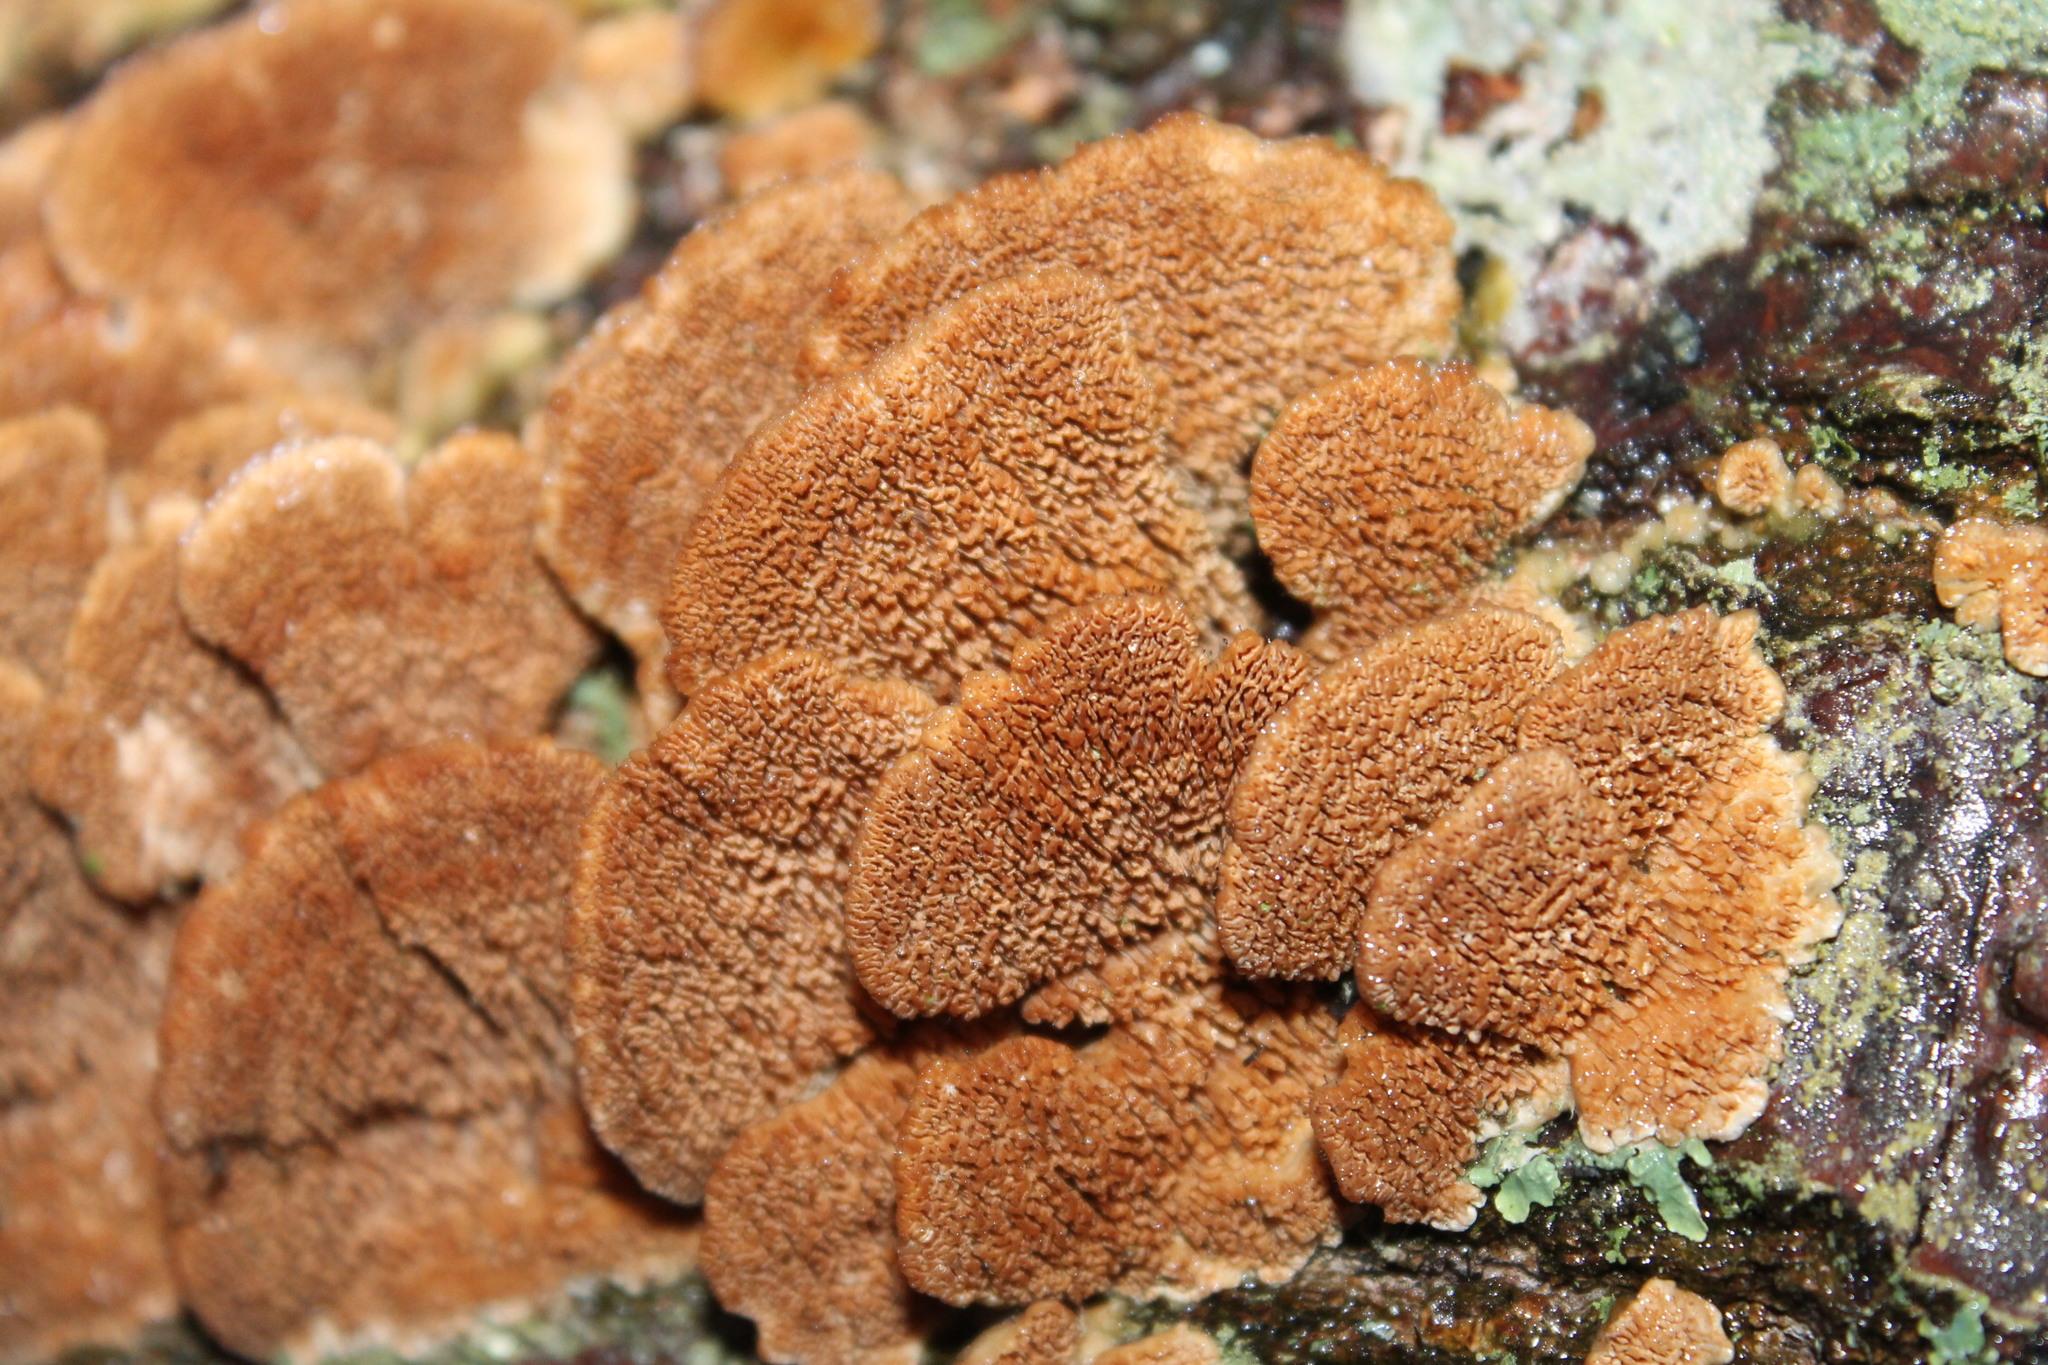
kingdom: Fungi
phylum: Basidiomycota
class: Agaricomycetes
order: Hymenochaetales
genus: Trichaptum
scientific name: Trichaptum biforme
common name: Violet-toothed polypore
